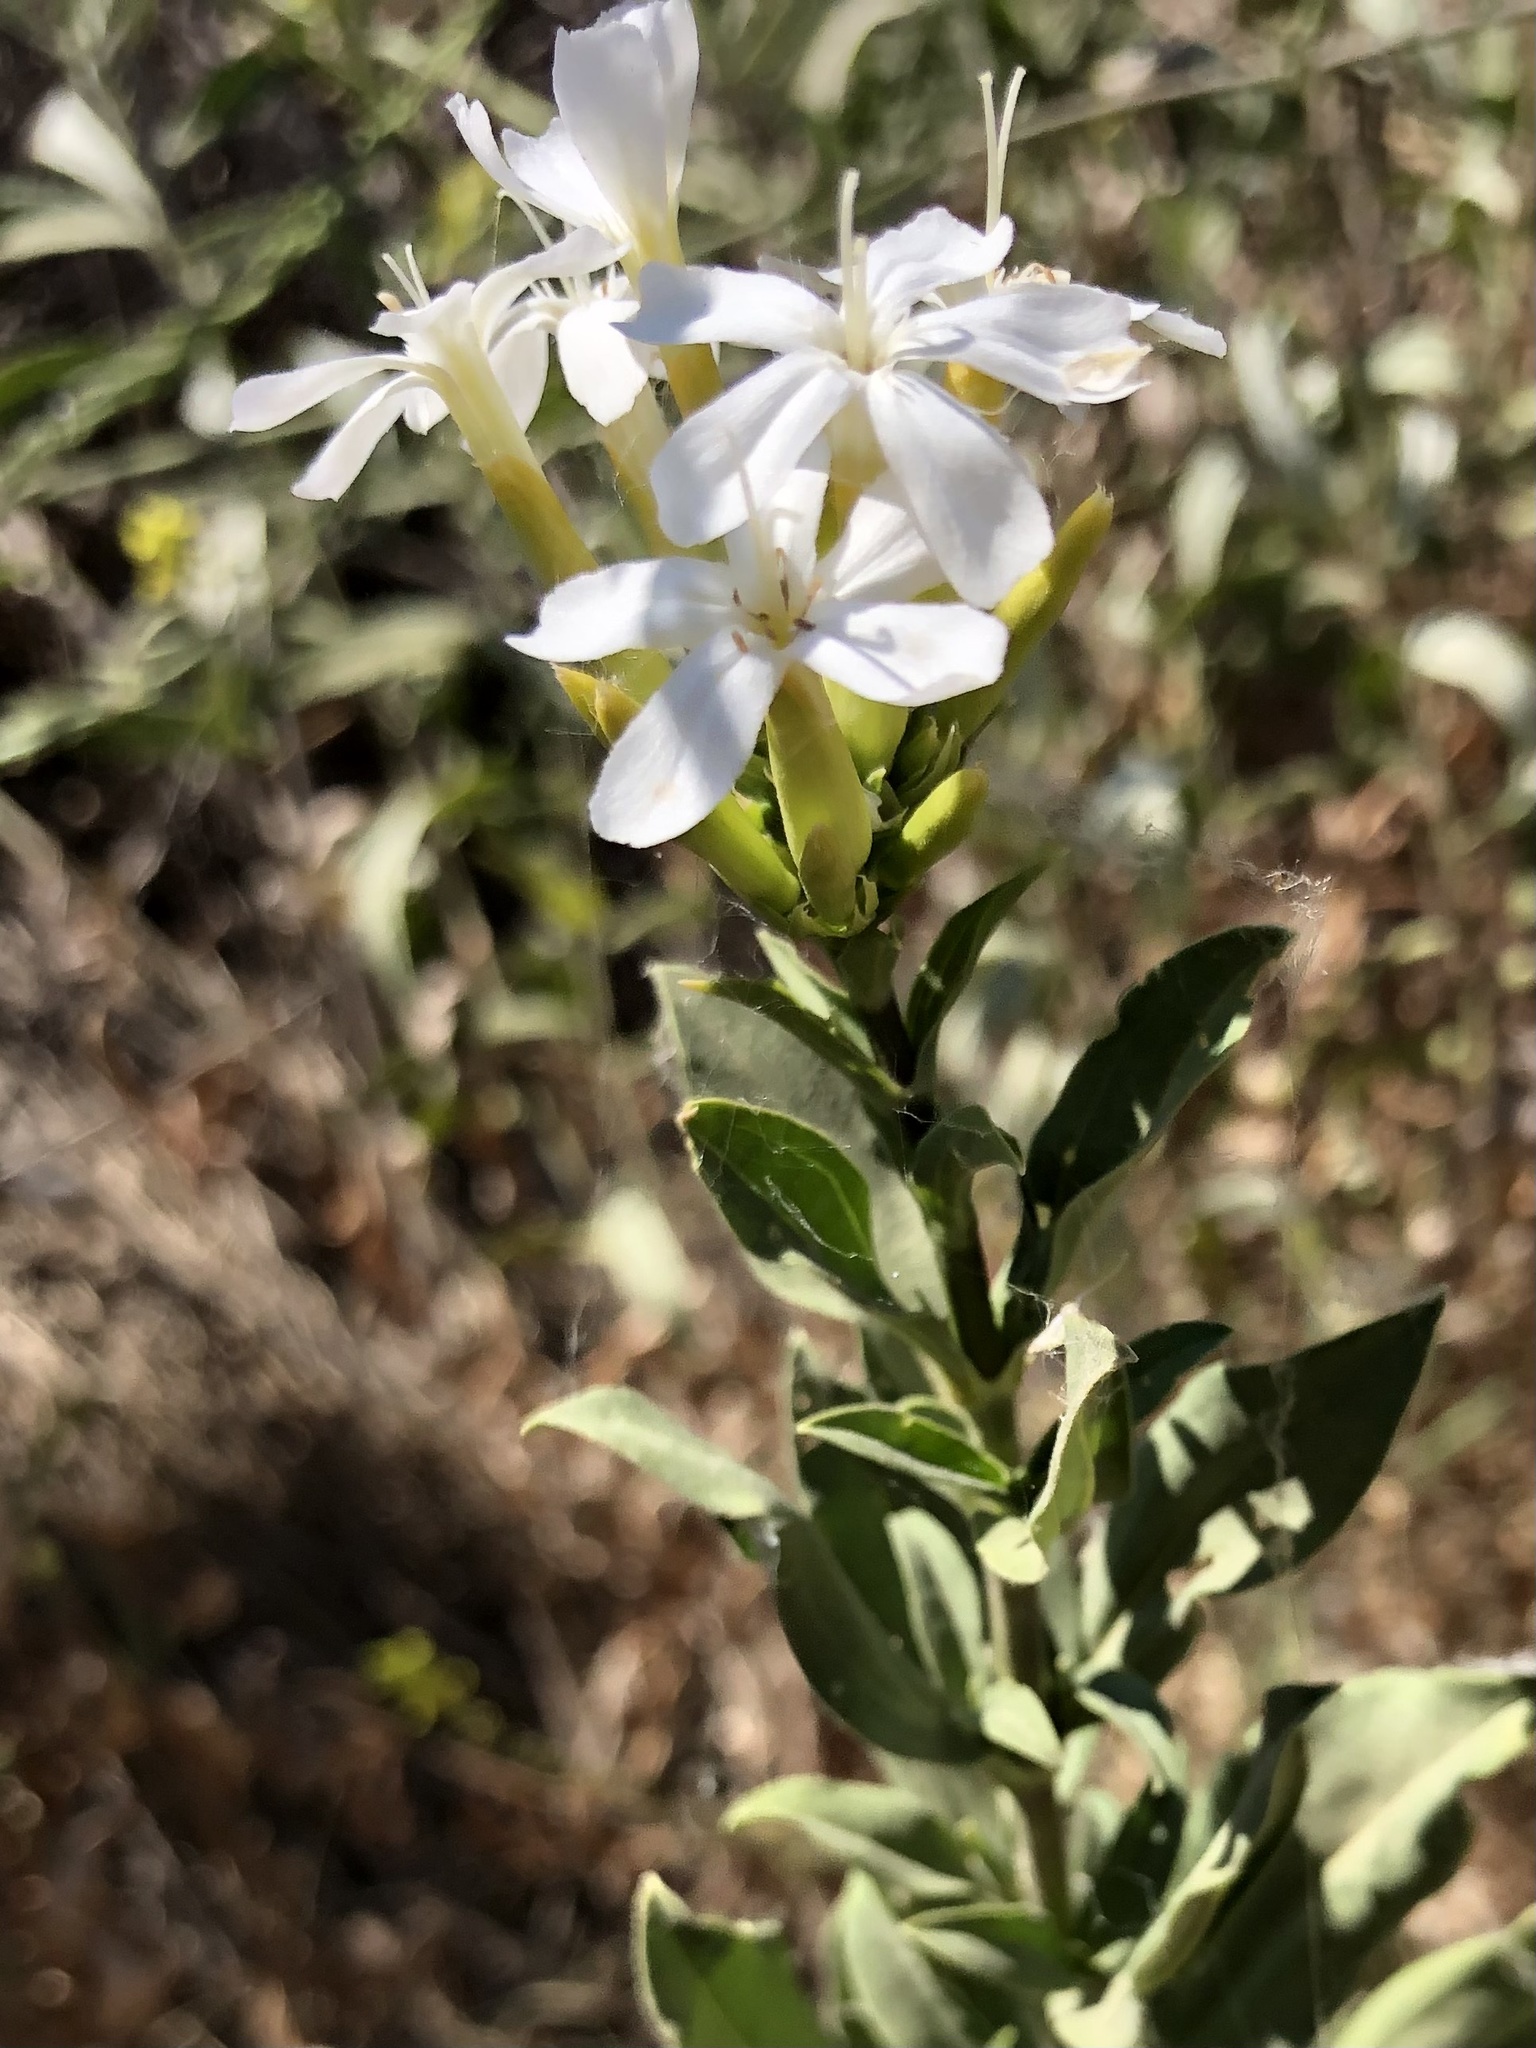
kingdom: Plantae
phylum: Tracheophyta
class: Magnoliopsida
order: Caryophyllales
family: Caryophyllaceae
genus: Saponaria
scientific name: Saponaria officinalis
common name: Soapwort
